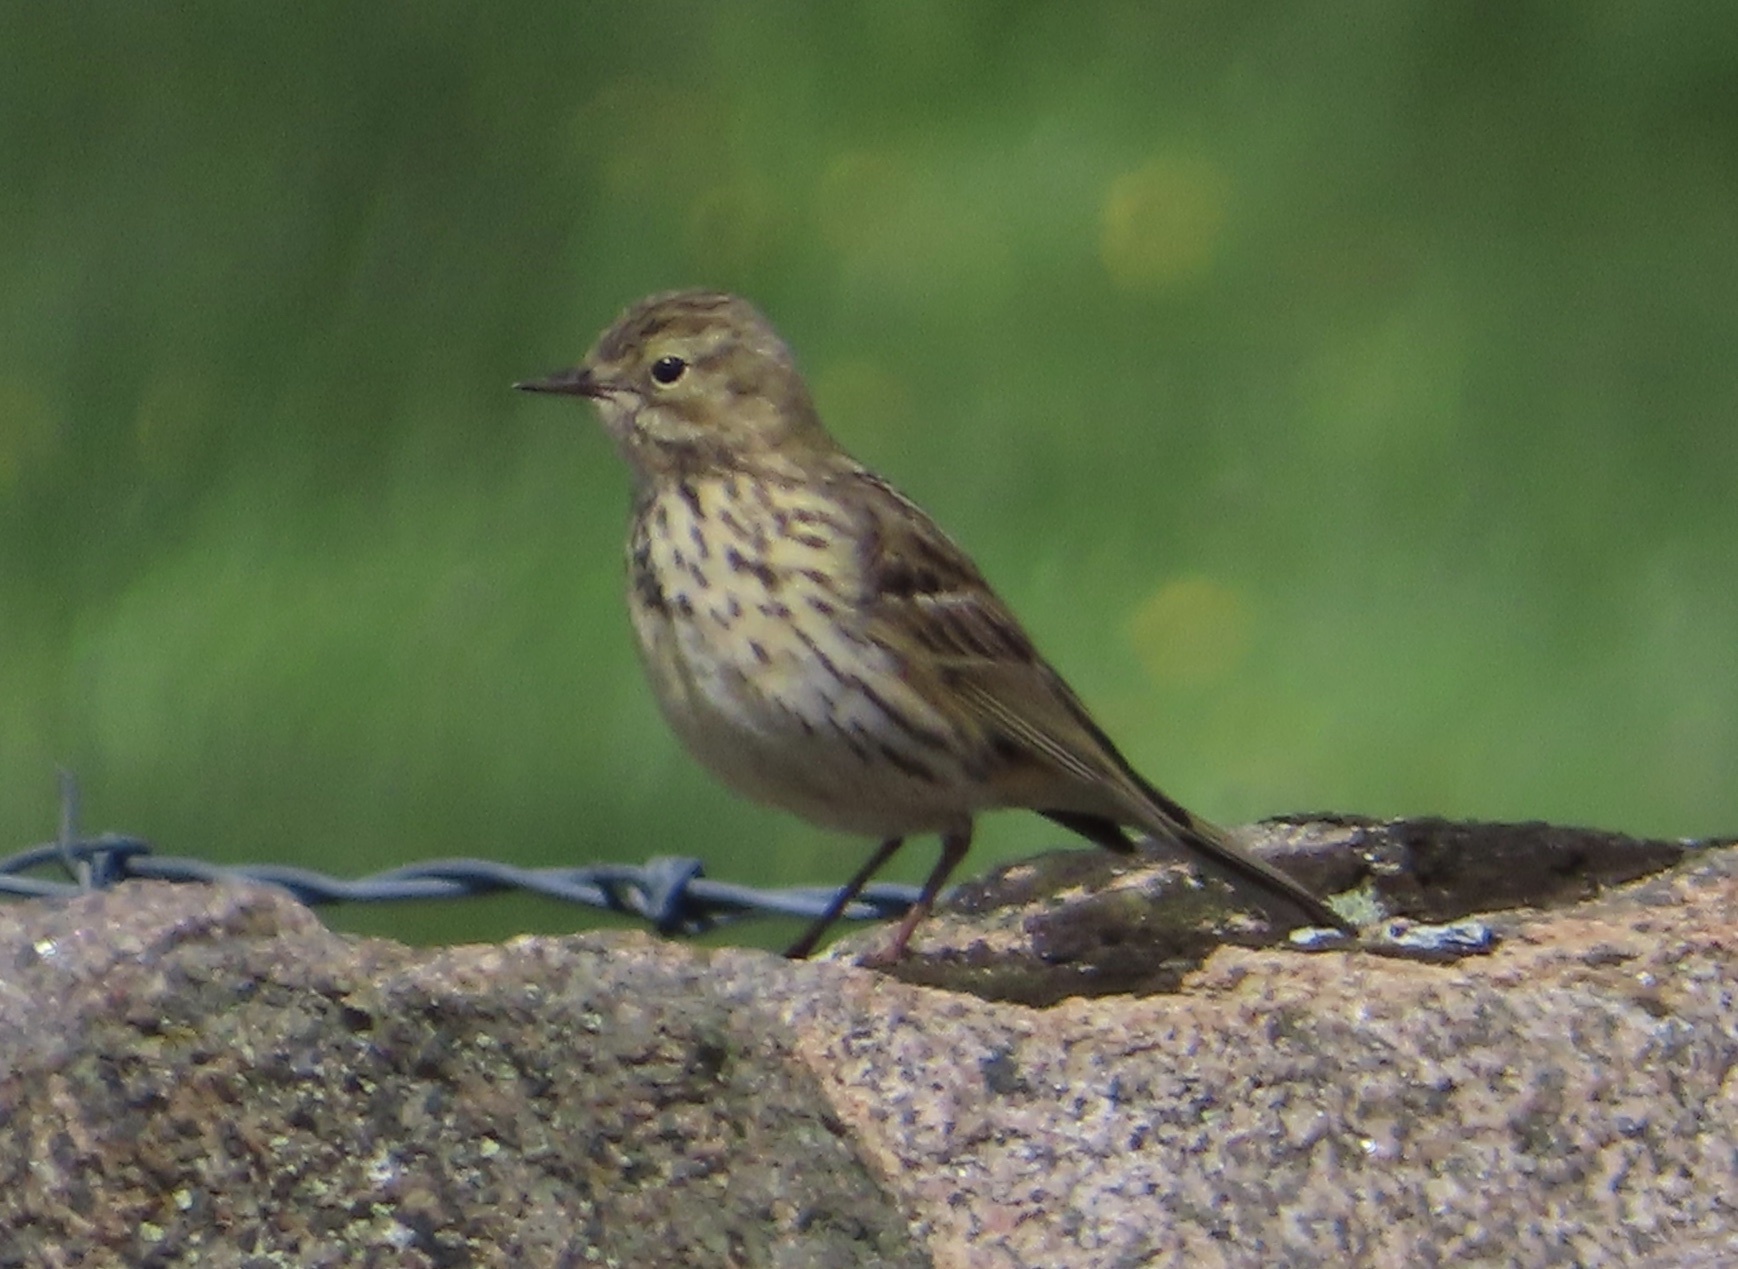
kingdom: Animalia
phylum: Chordata
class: Aves
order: Passeriformes
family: Motacillidae
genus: Anthus
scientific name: Anthus pratensis
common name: Meadow pipit
